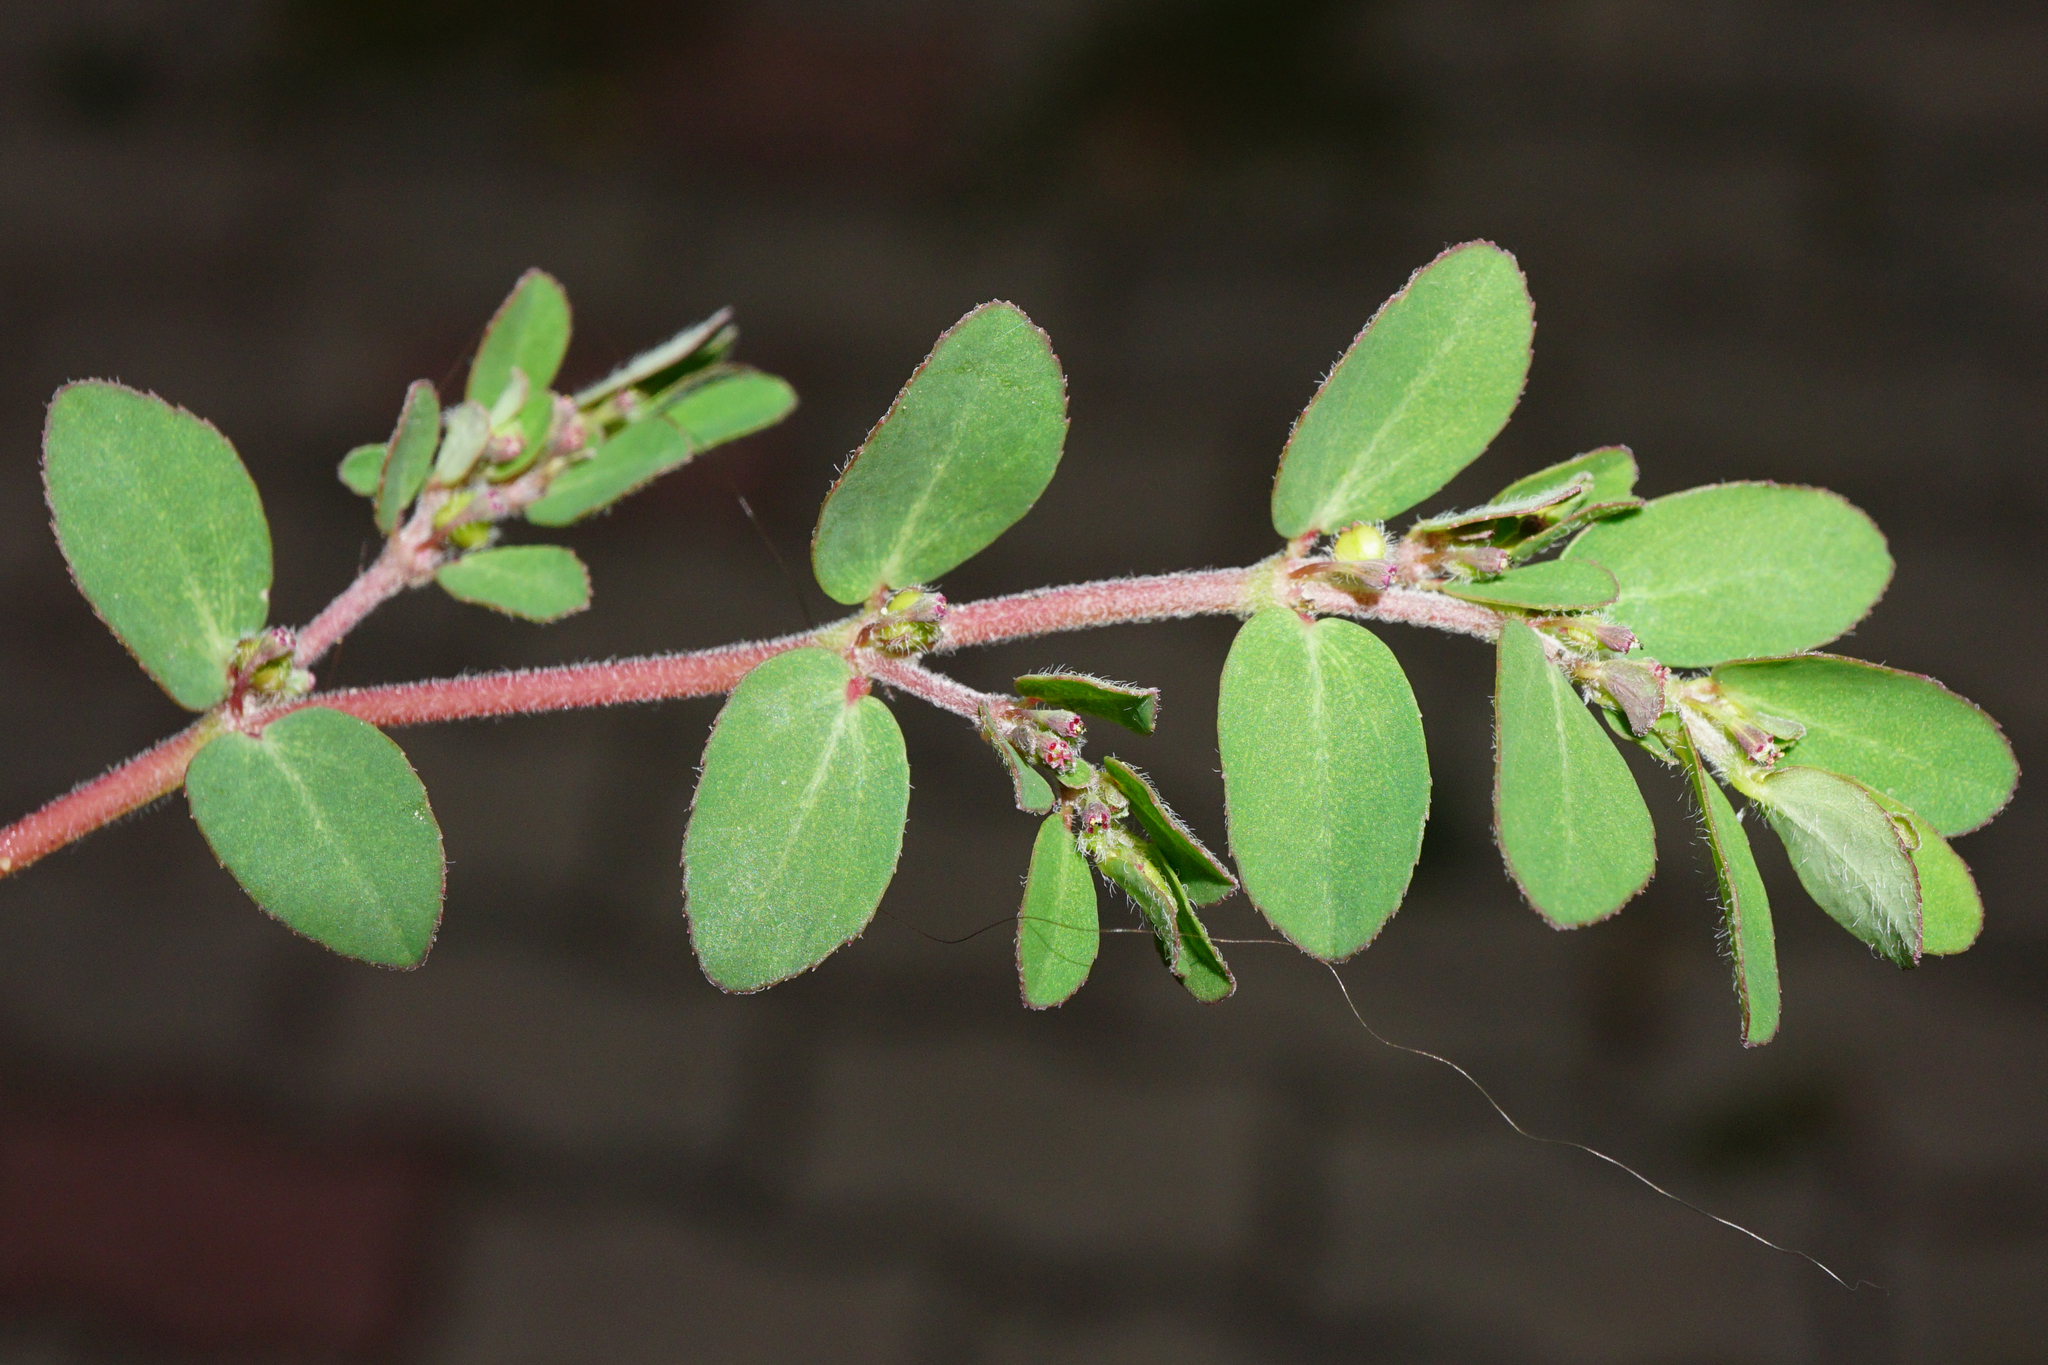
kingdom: Plantae
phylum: Tracheophyta
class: Magnoliopsida
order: Malpighiales
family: Euphorbiaceae
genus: Euphorbia
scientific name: Euphorbia prostrata
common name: Prostrate sandmat
